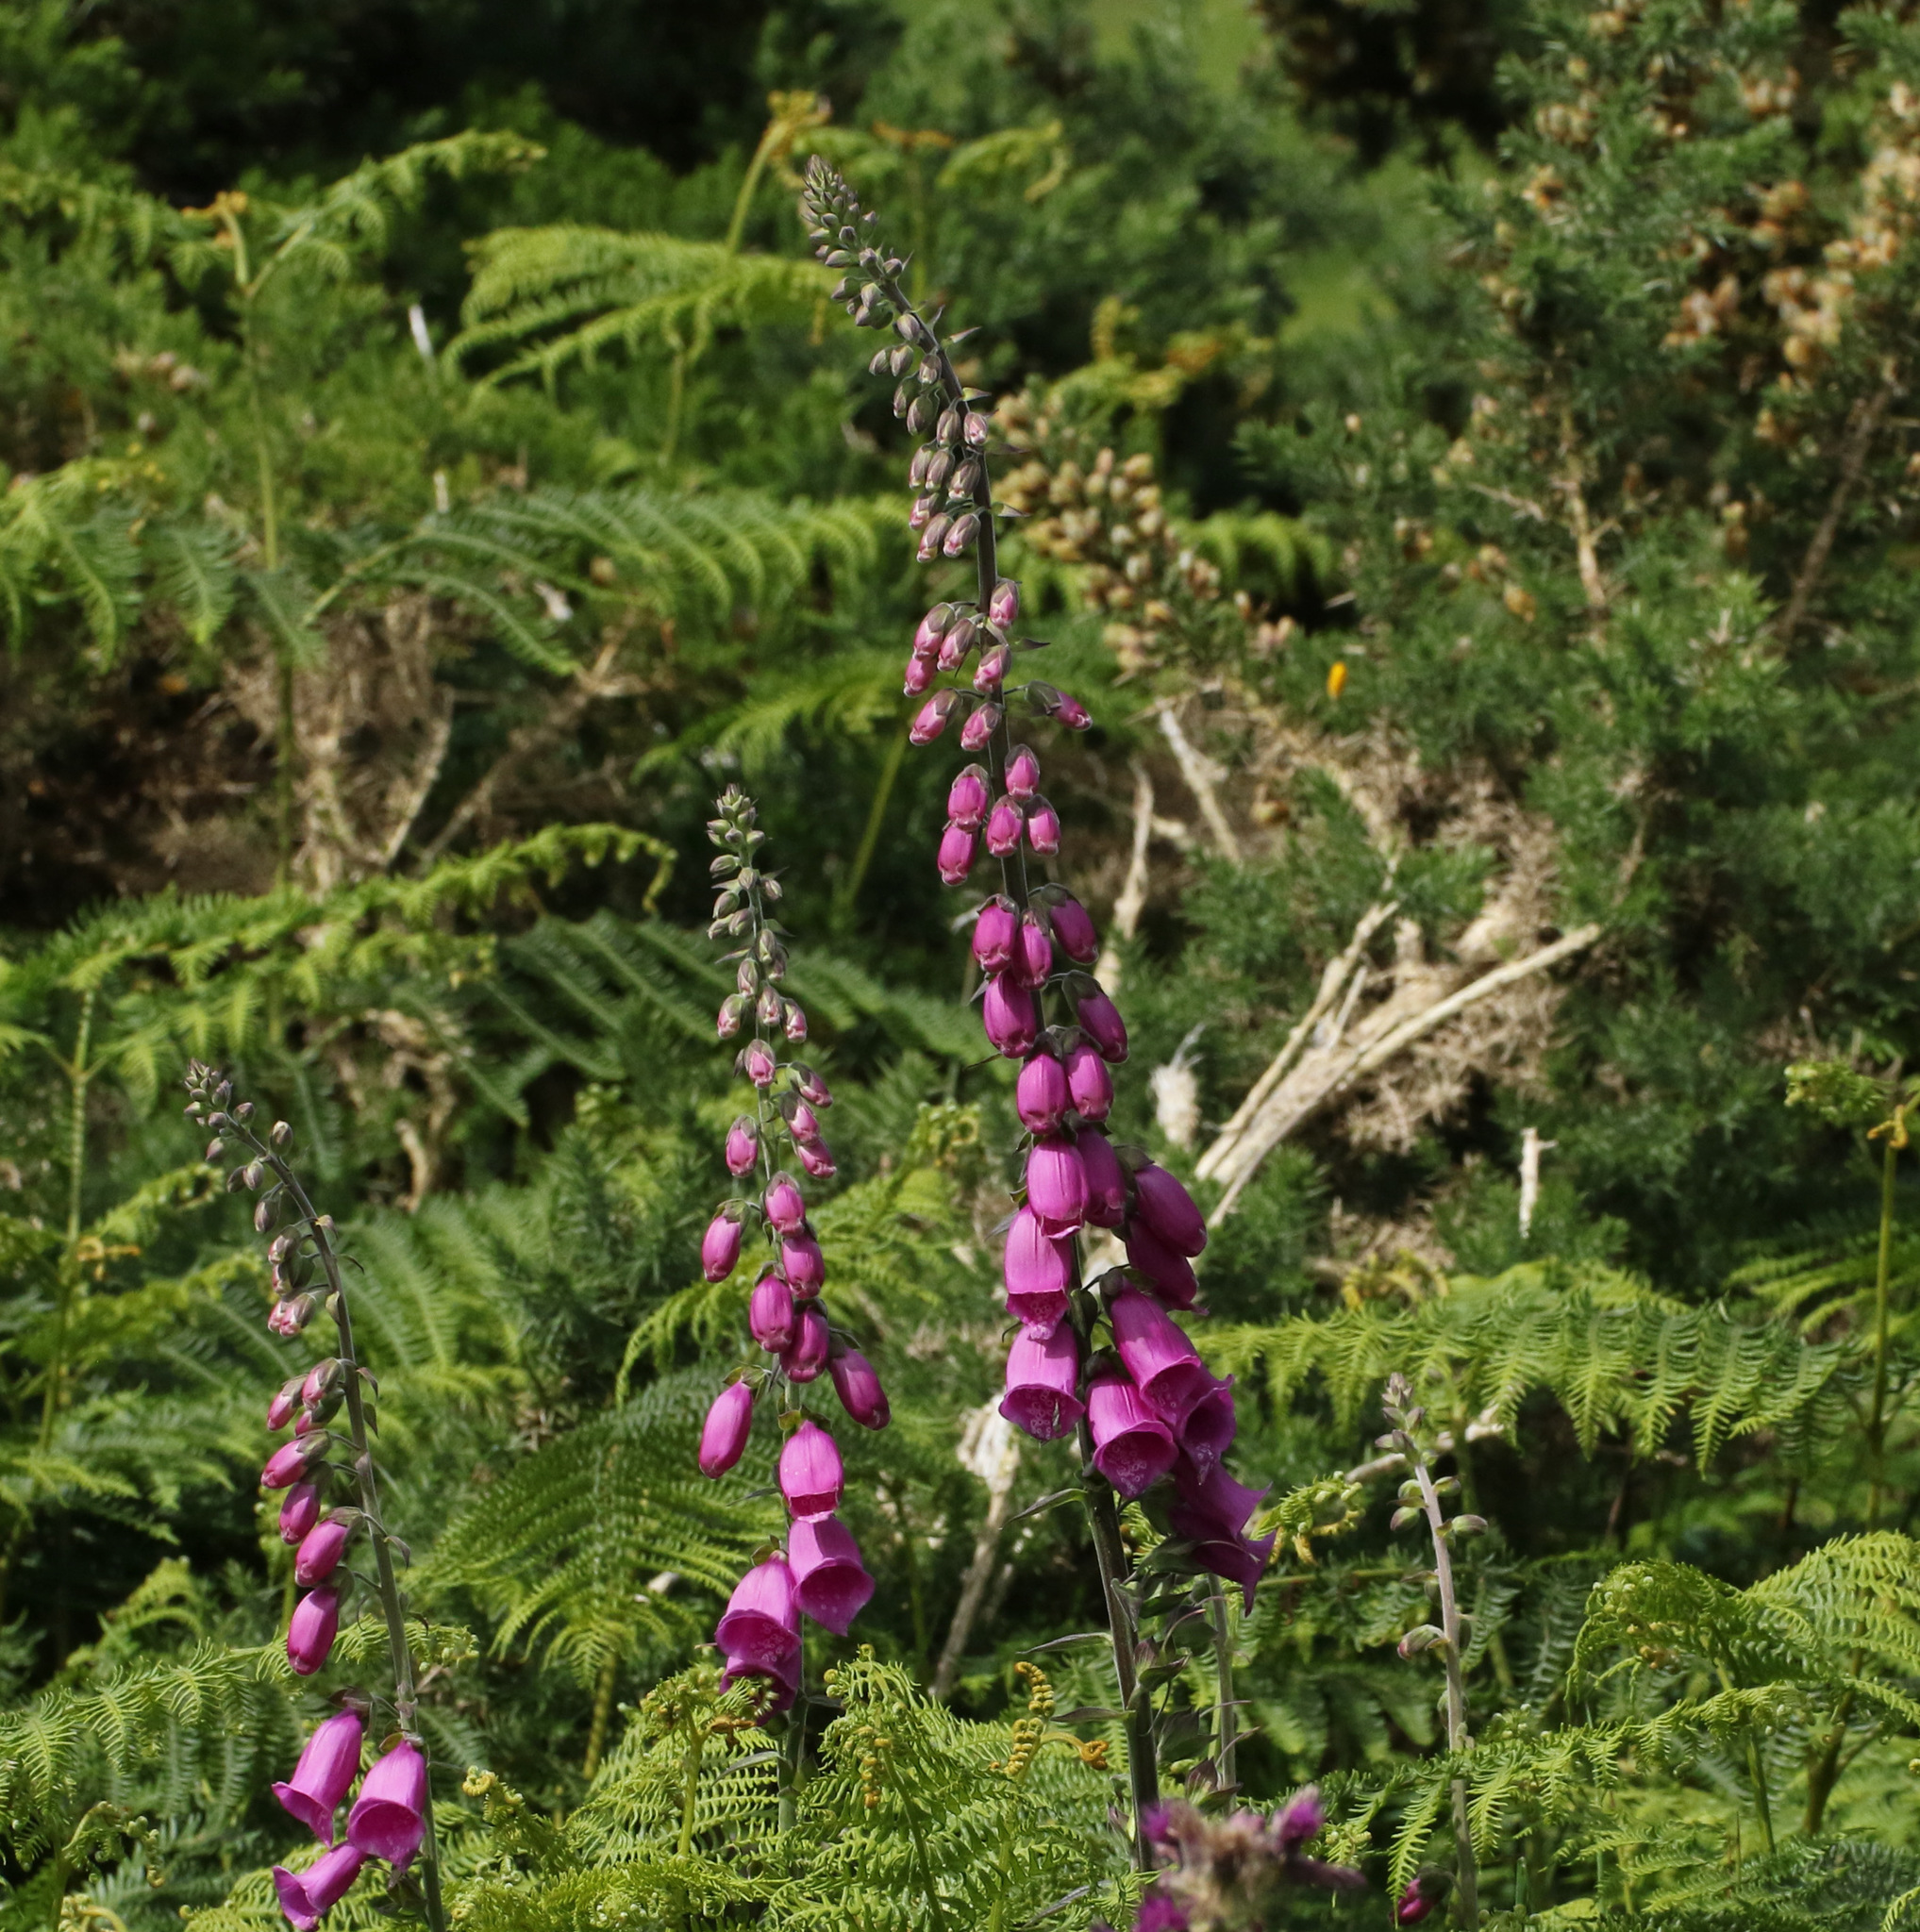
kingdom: Plantae
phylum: Tracheophyta
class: Magnoliopsida
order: Lamiales
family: Plantaginaceae
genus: Digitalis
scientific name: Digitalis purpurea
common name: Foxglove
